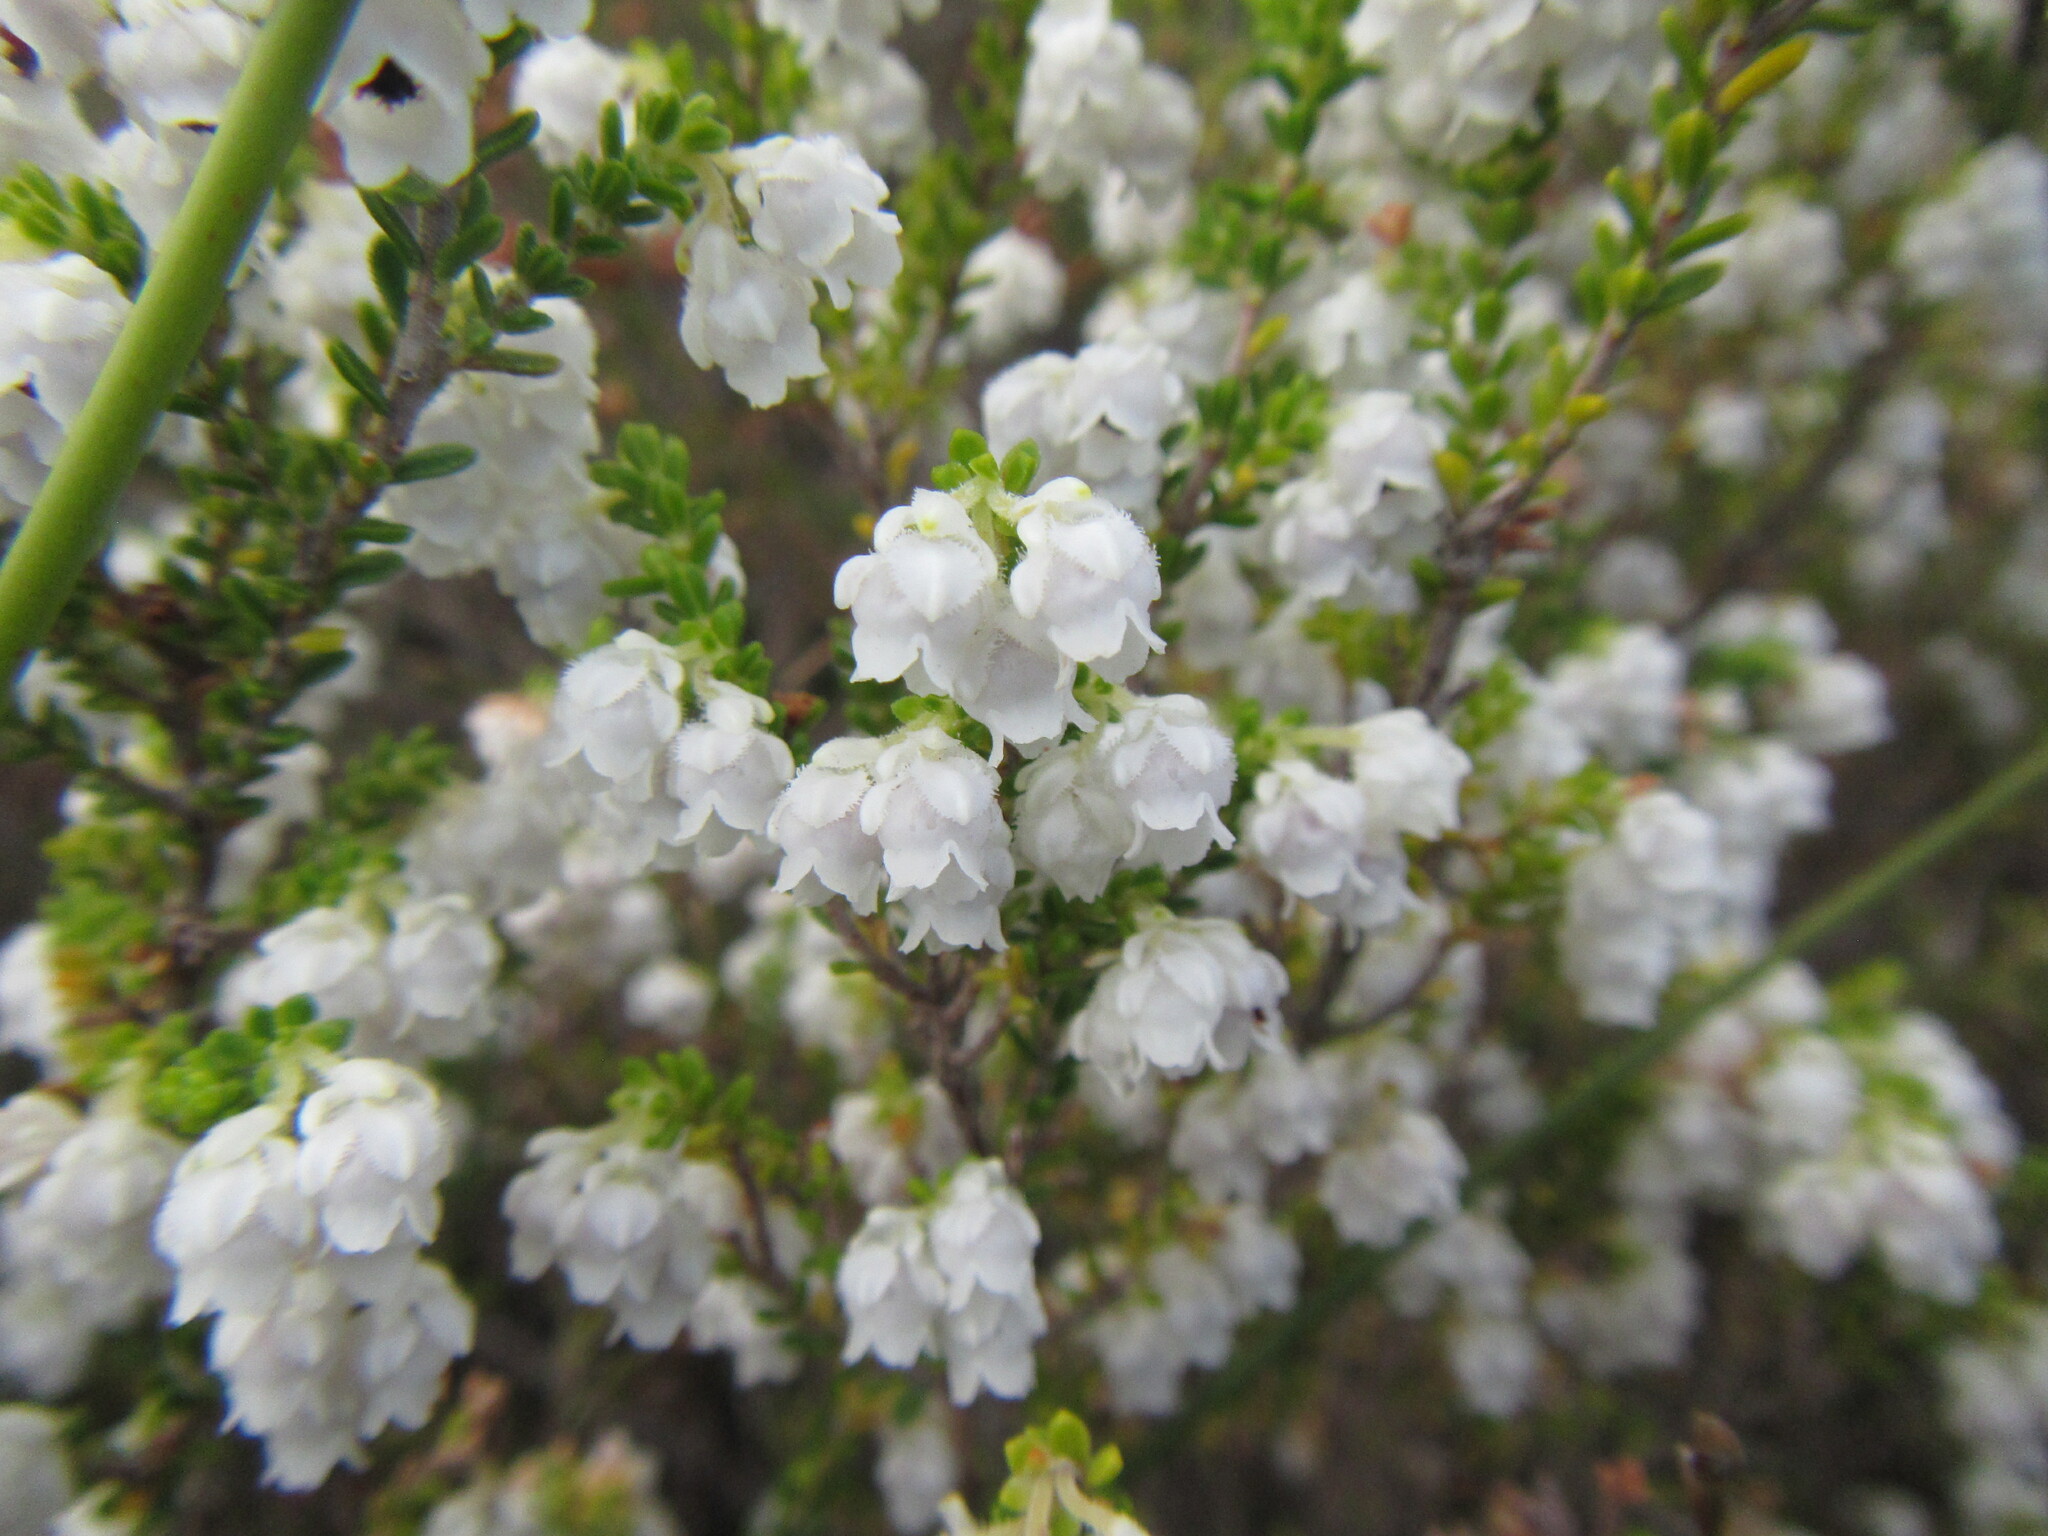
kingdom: Plantae
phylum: Tracheophyta
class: Magnoliopsida
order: Ericales
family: Ericaceae
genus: Erica
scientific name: Erica fimbriata
